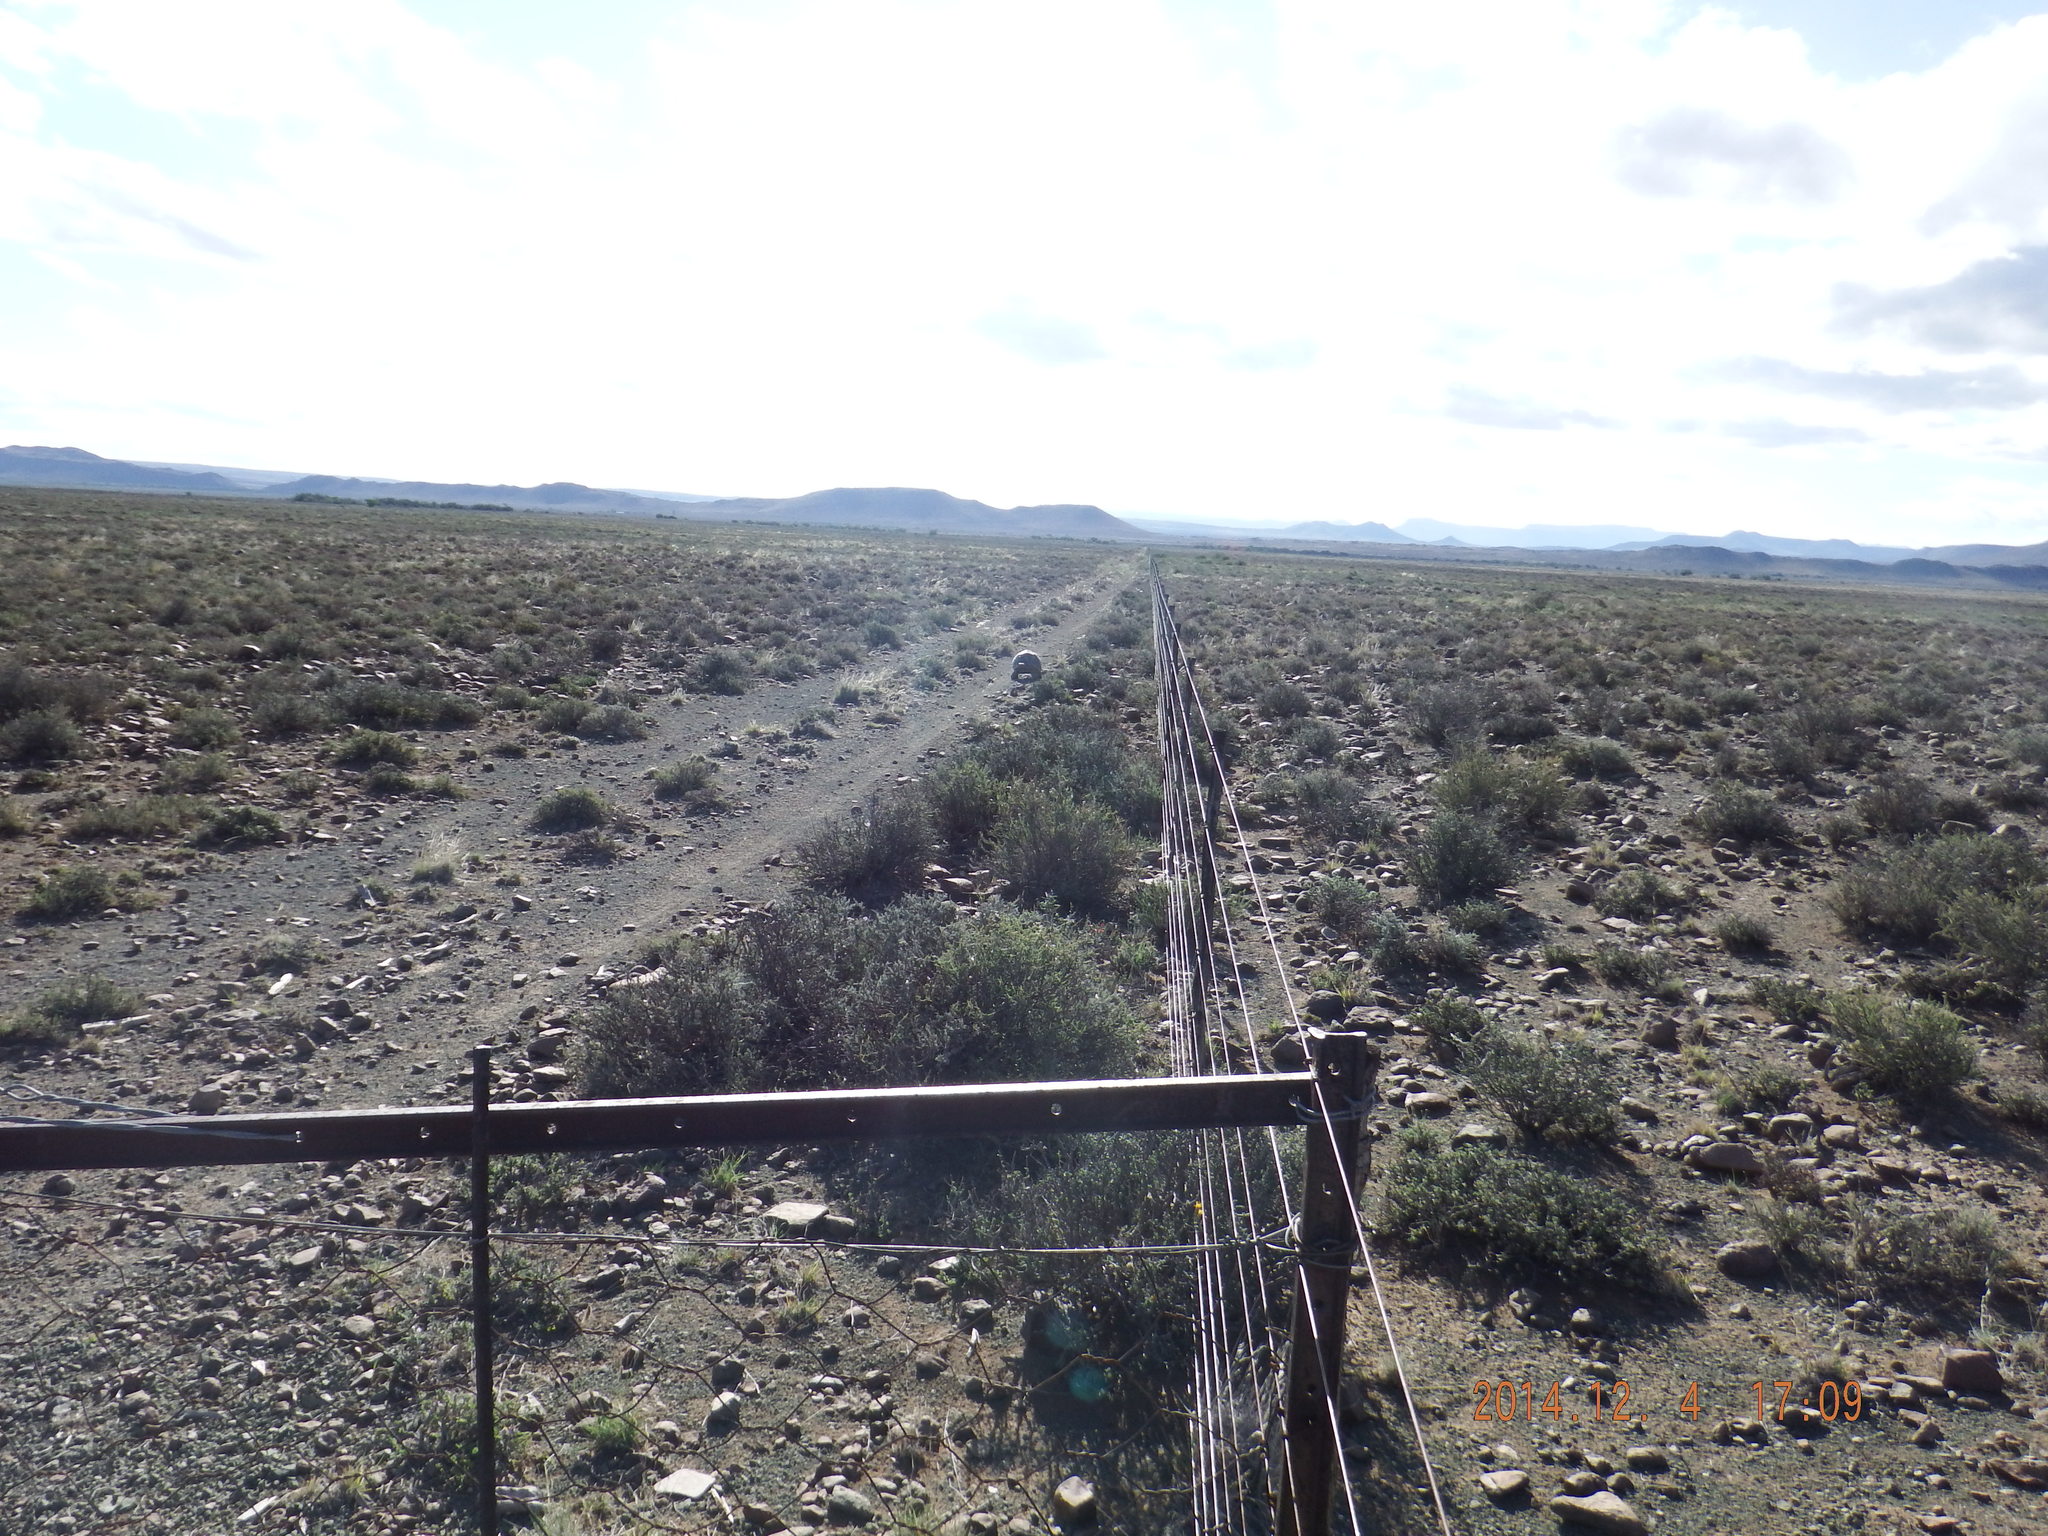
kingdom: Animalia
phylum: Chordata
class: Testudines
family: Testudinidae
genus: Stigmochelys
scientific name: Stigmochelys pardalis
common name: Leopard tortoise
